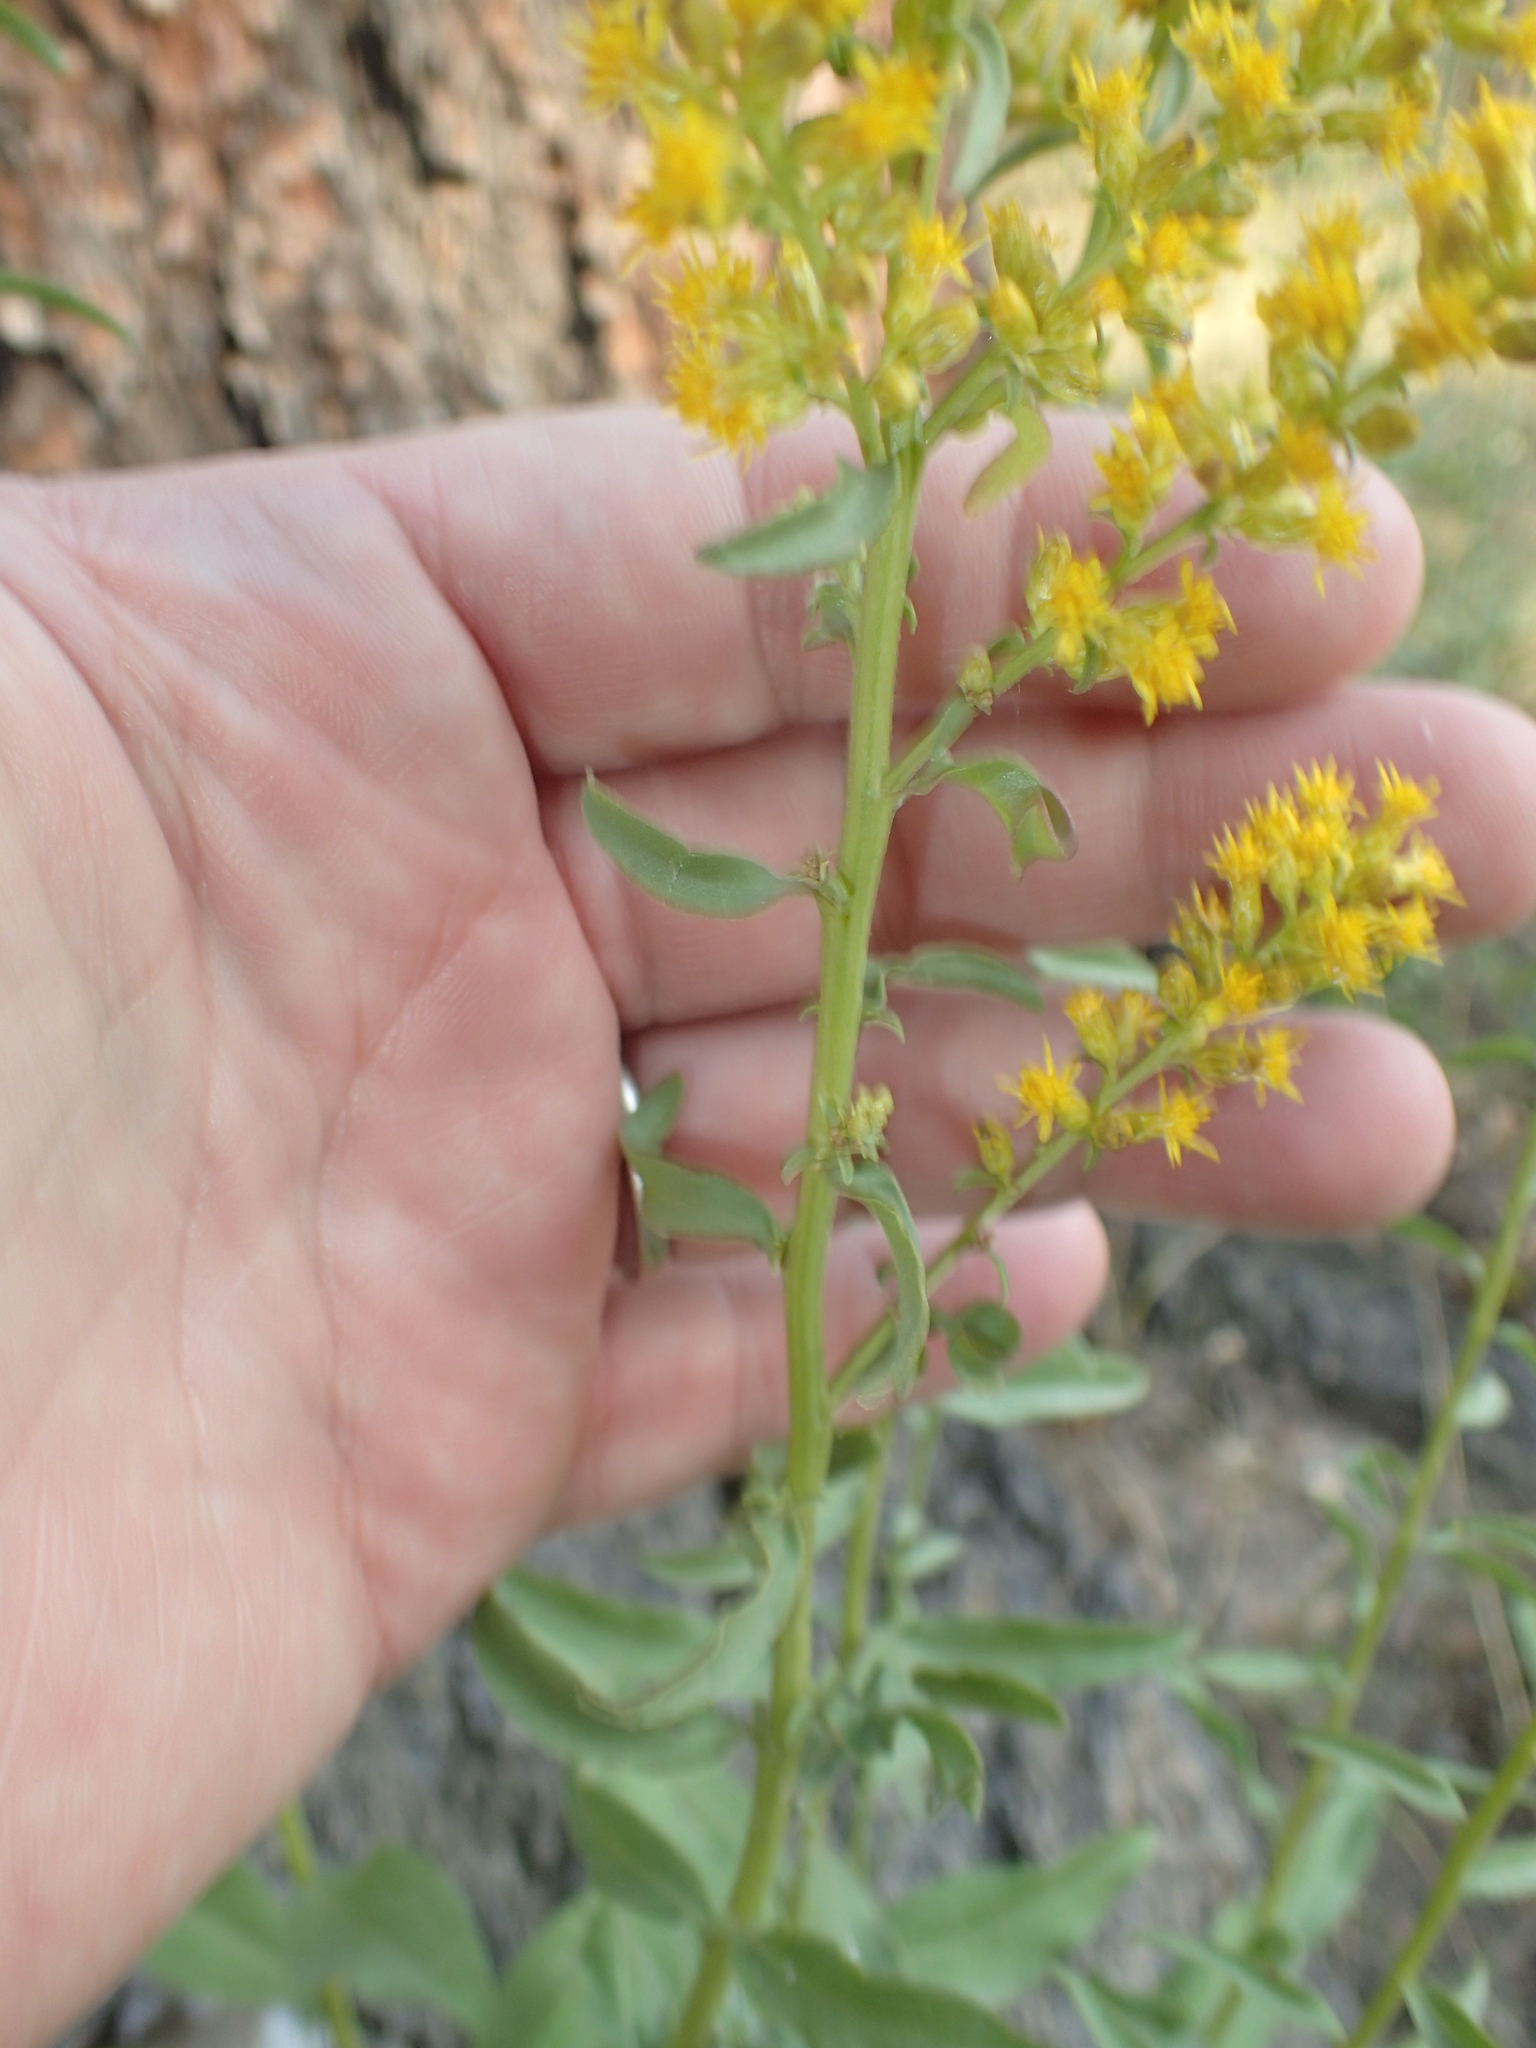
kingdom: Plantae
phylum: Tracheophyta
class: Magnoliopsida
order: Asterales
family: Asteraceae
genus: Solidago
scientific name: Solidago pallida
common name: Pale showy goldenrod
